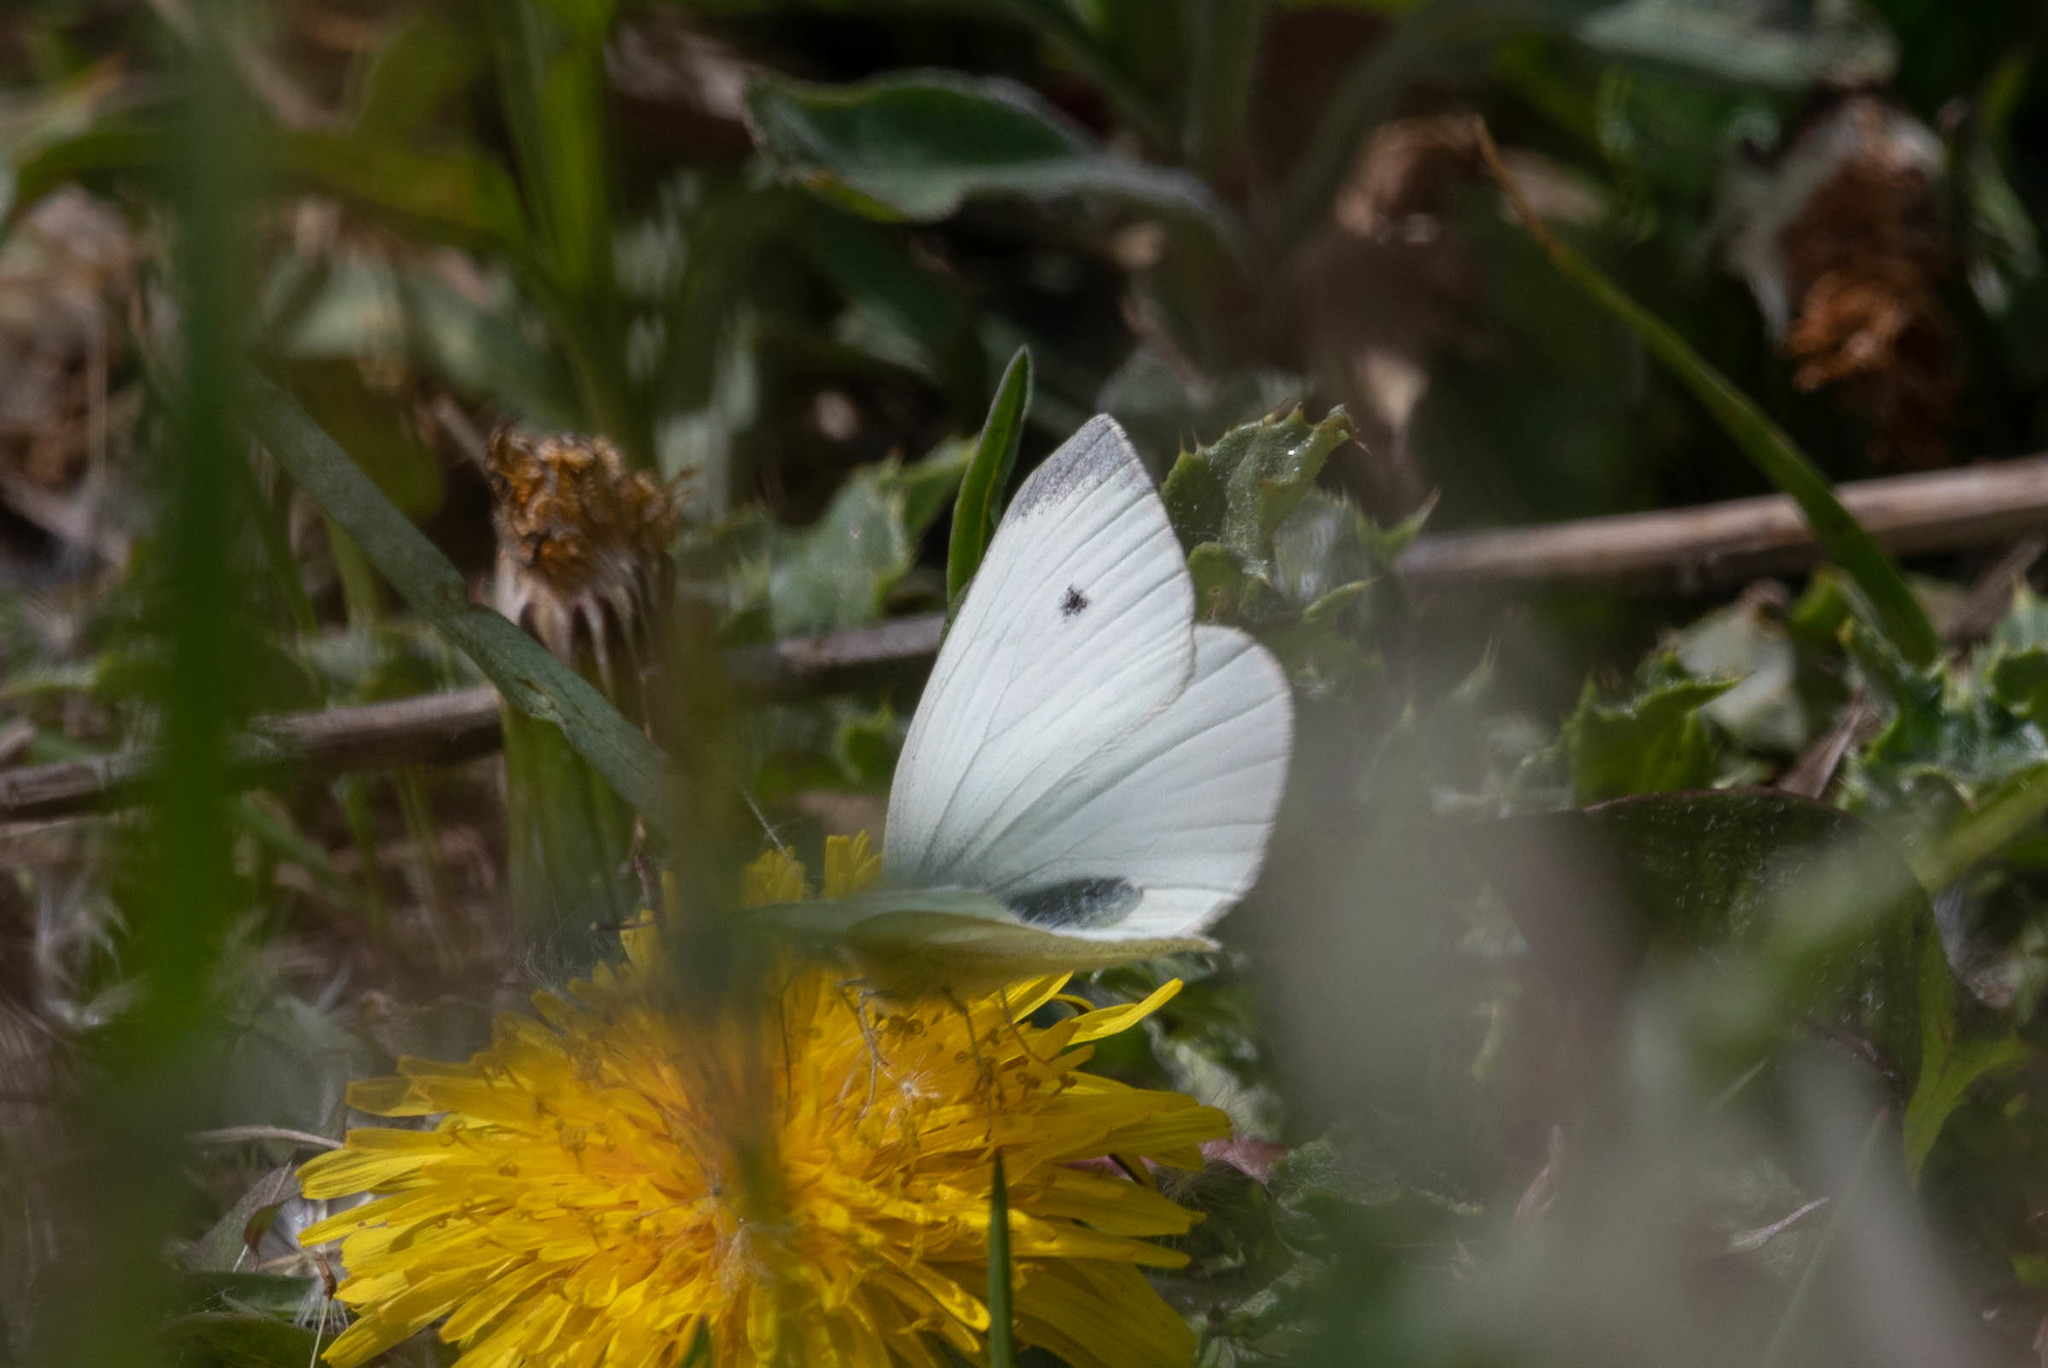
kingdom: Animalia
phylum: Arthropoda
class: Insecta
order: Lepidoptera
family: Pieridae
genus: Pieris
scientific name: Pieris rapae
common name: Small white
